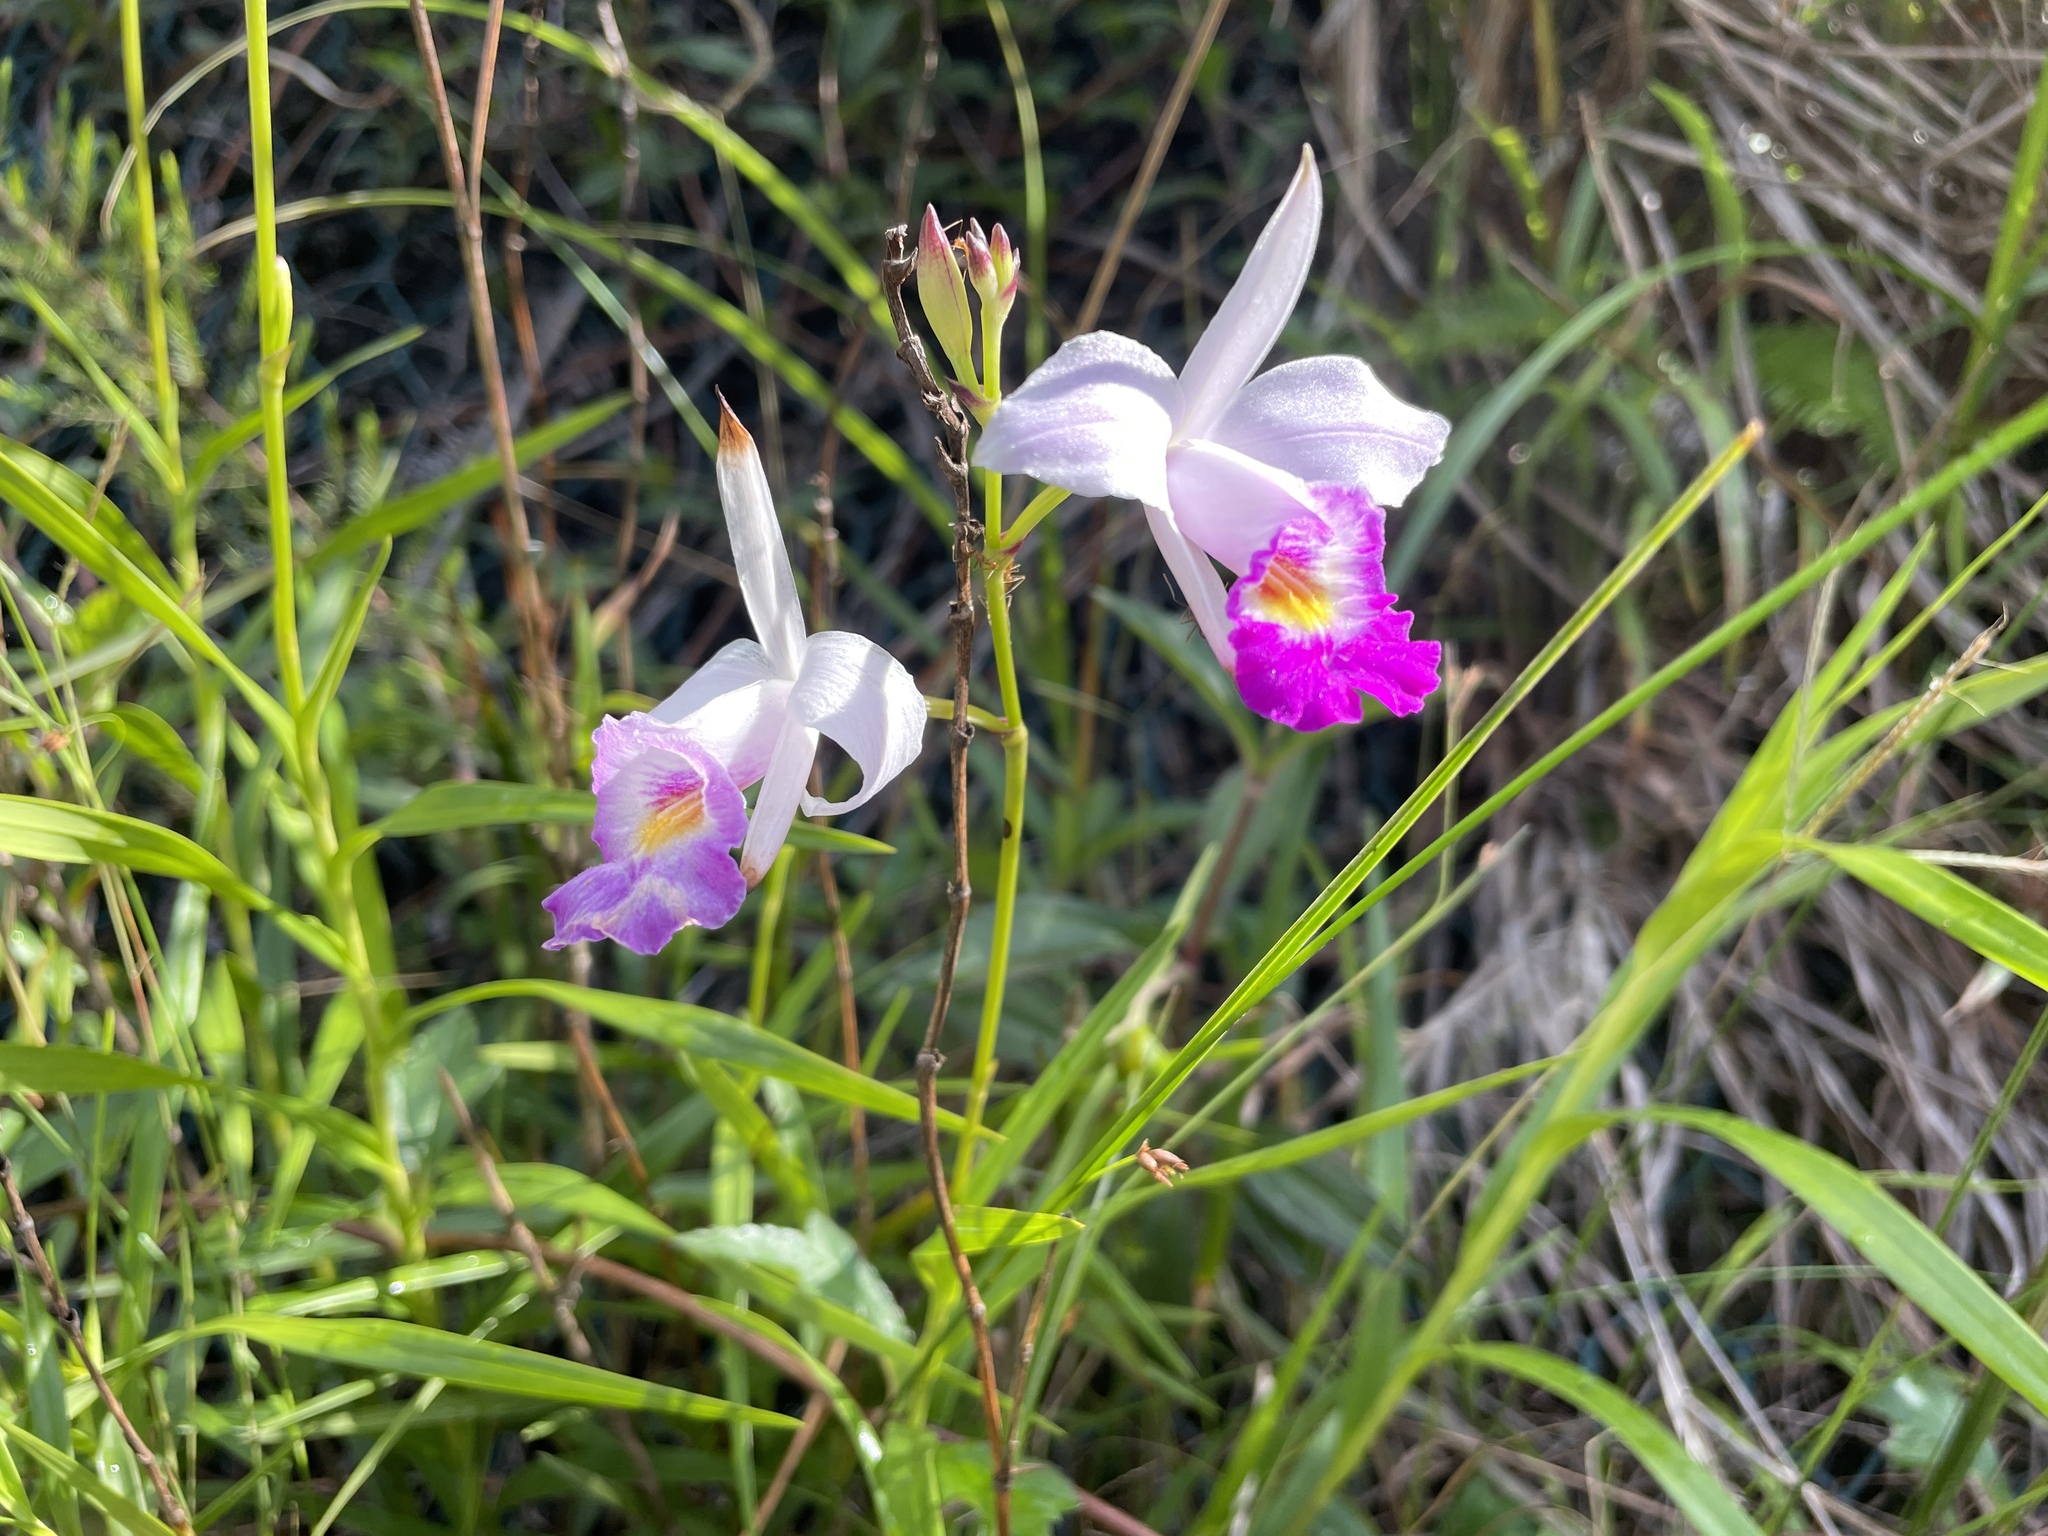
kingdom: Plantae
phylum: Tracheophyta
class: Liliopsida
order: Asparagales
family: Orchidaceae
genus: Arundina
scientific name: Arundina graminifolia
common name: Bamboo orchid
